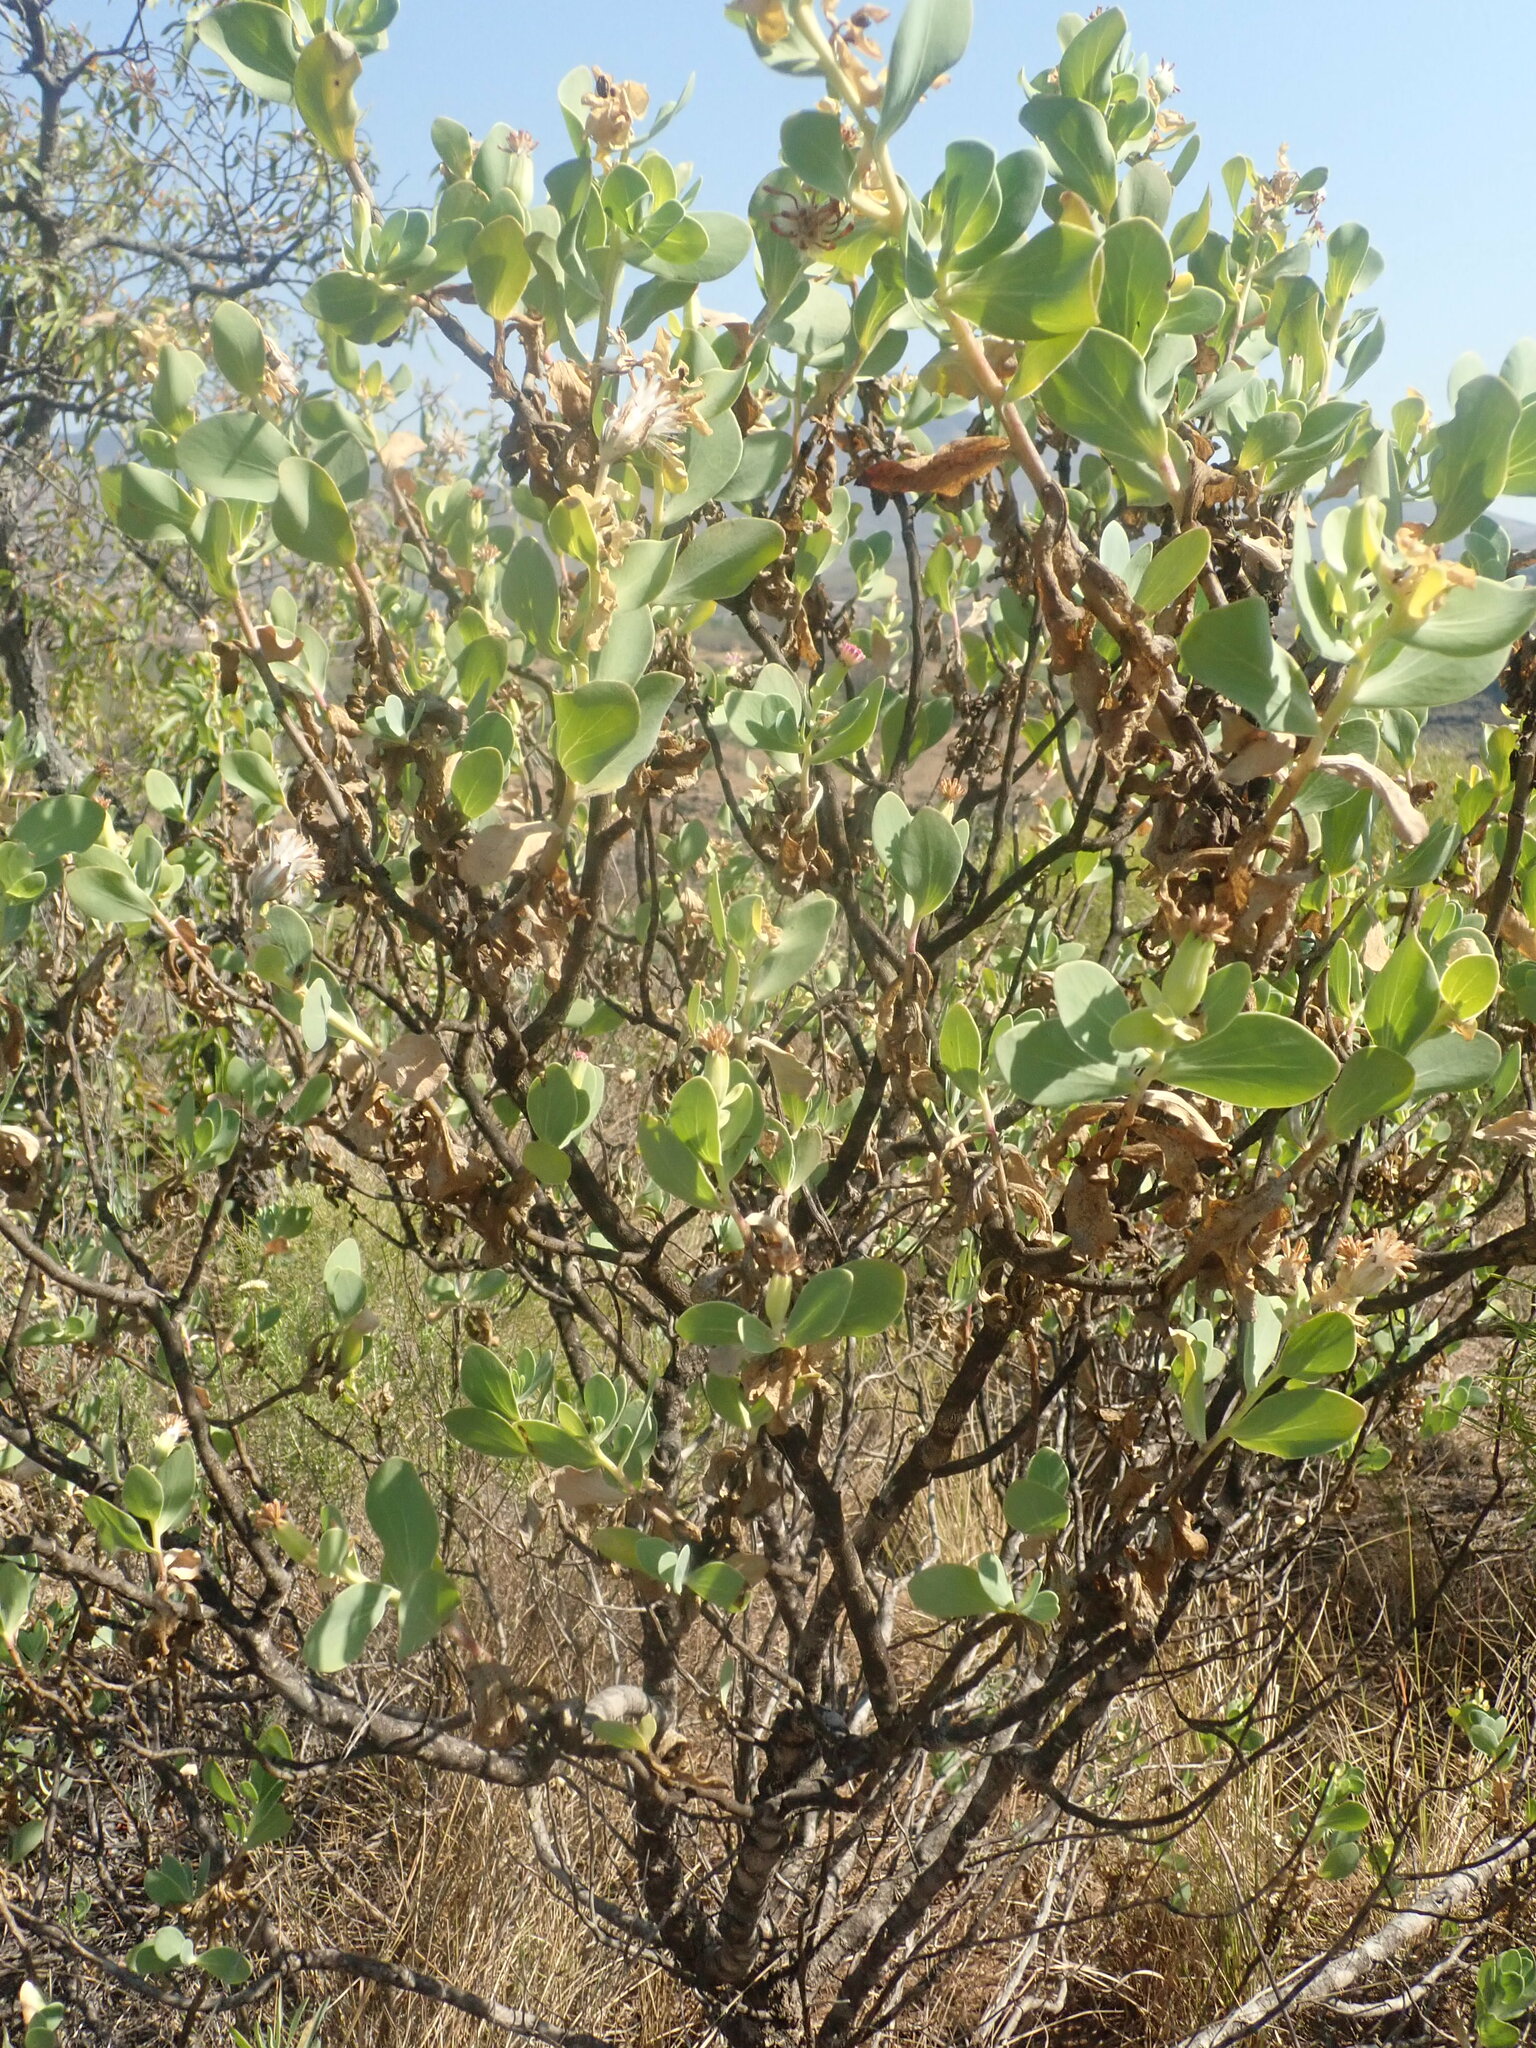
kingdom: Plantae
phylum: Tracheophyta
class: Magnoliopsida
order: Asterales
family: Asteraceae
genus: Lopholaena
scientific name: Lopholaena coriifolia
